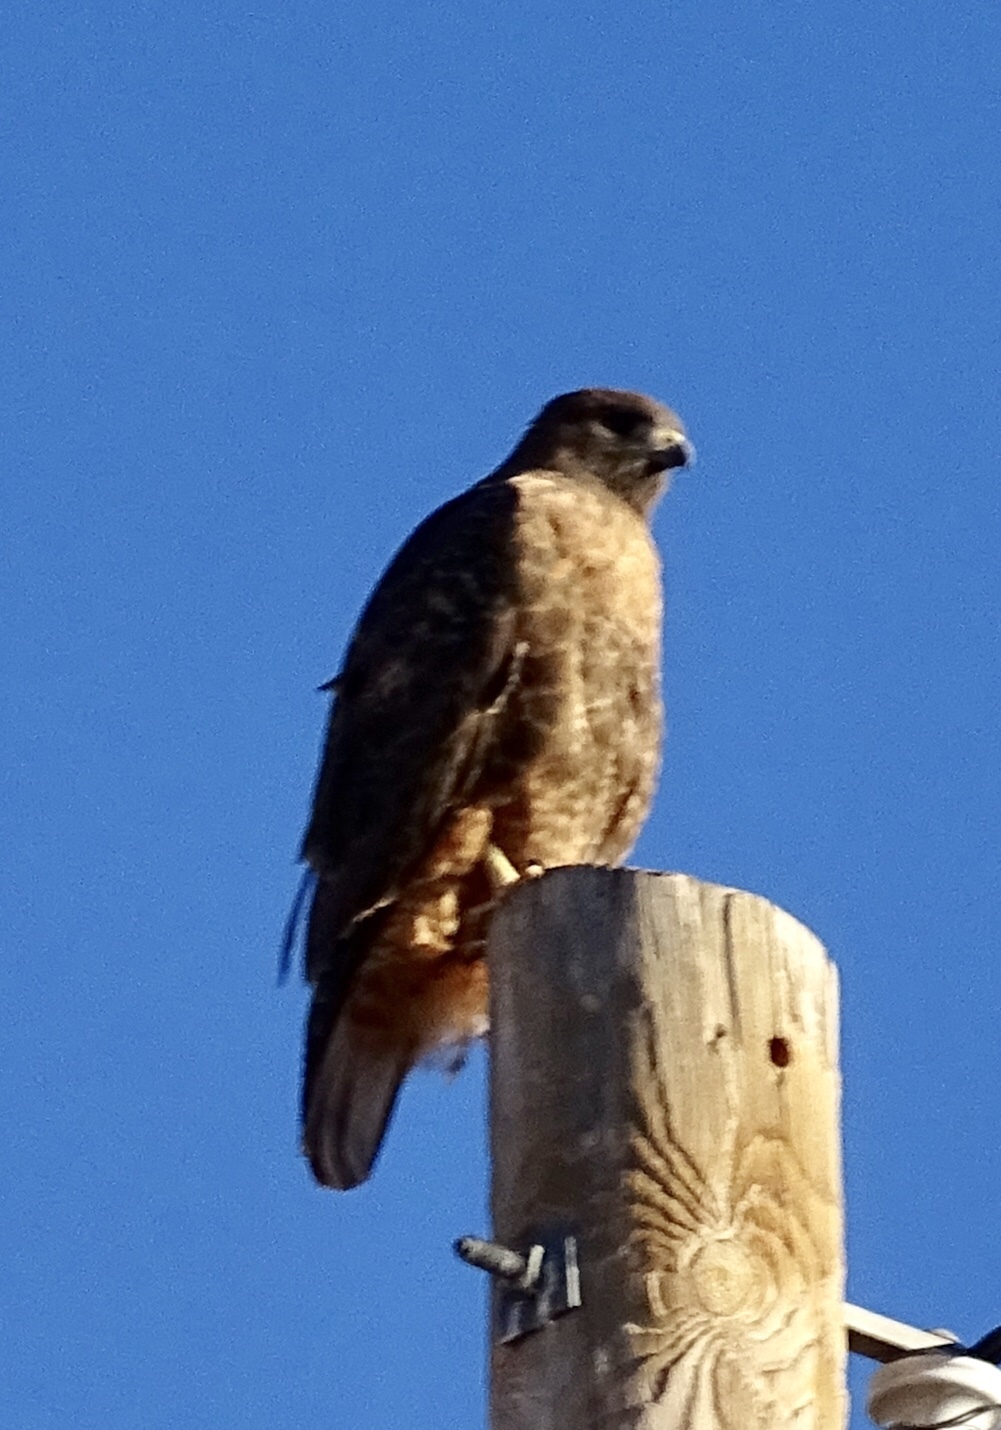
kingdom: Animalia
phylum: Chordata
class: Aves
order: Accipitriformes
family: Accipitridae
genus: Buteo
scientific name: Buteo jamaicensis
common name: Red-tailed hawk
